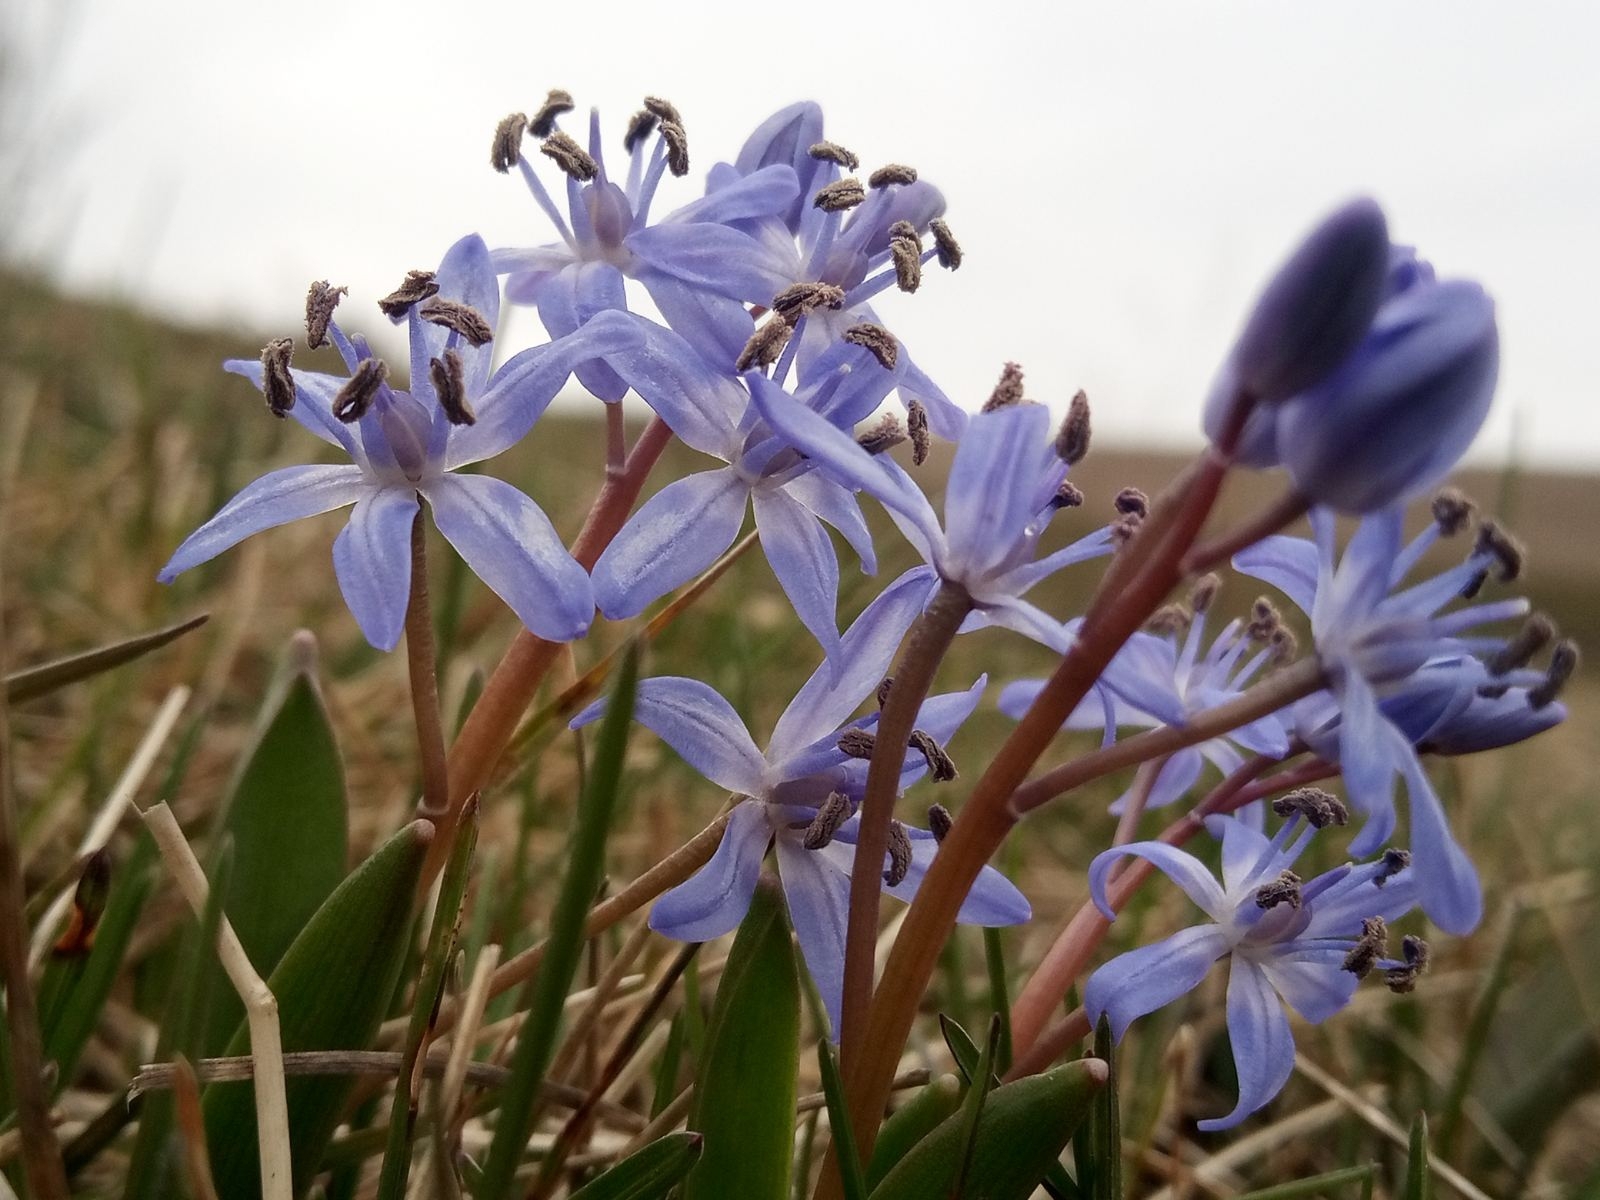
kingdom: Plantae
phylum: Tracheophyta
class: Liliopsida
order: Asparagales
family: Asparagaceae
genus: Scilla
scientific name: Scilla bifolia
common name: Alpine squill
